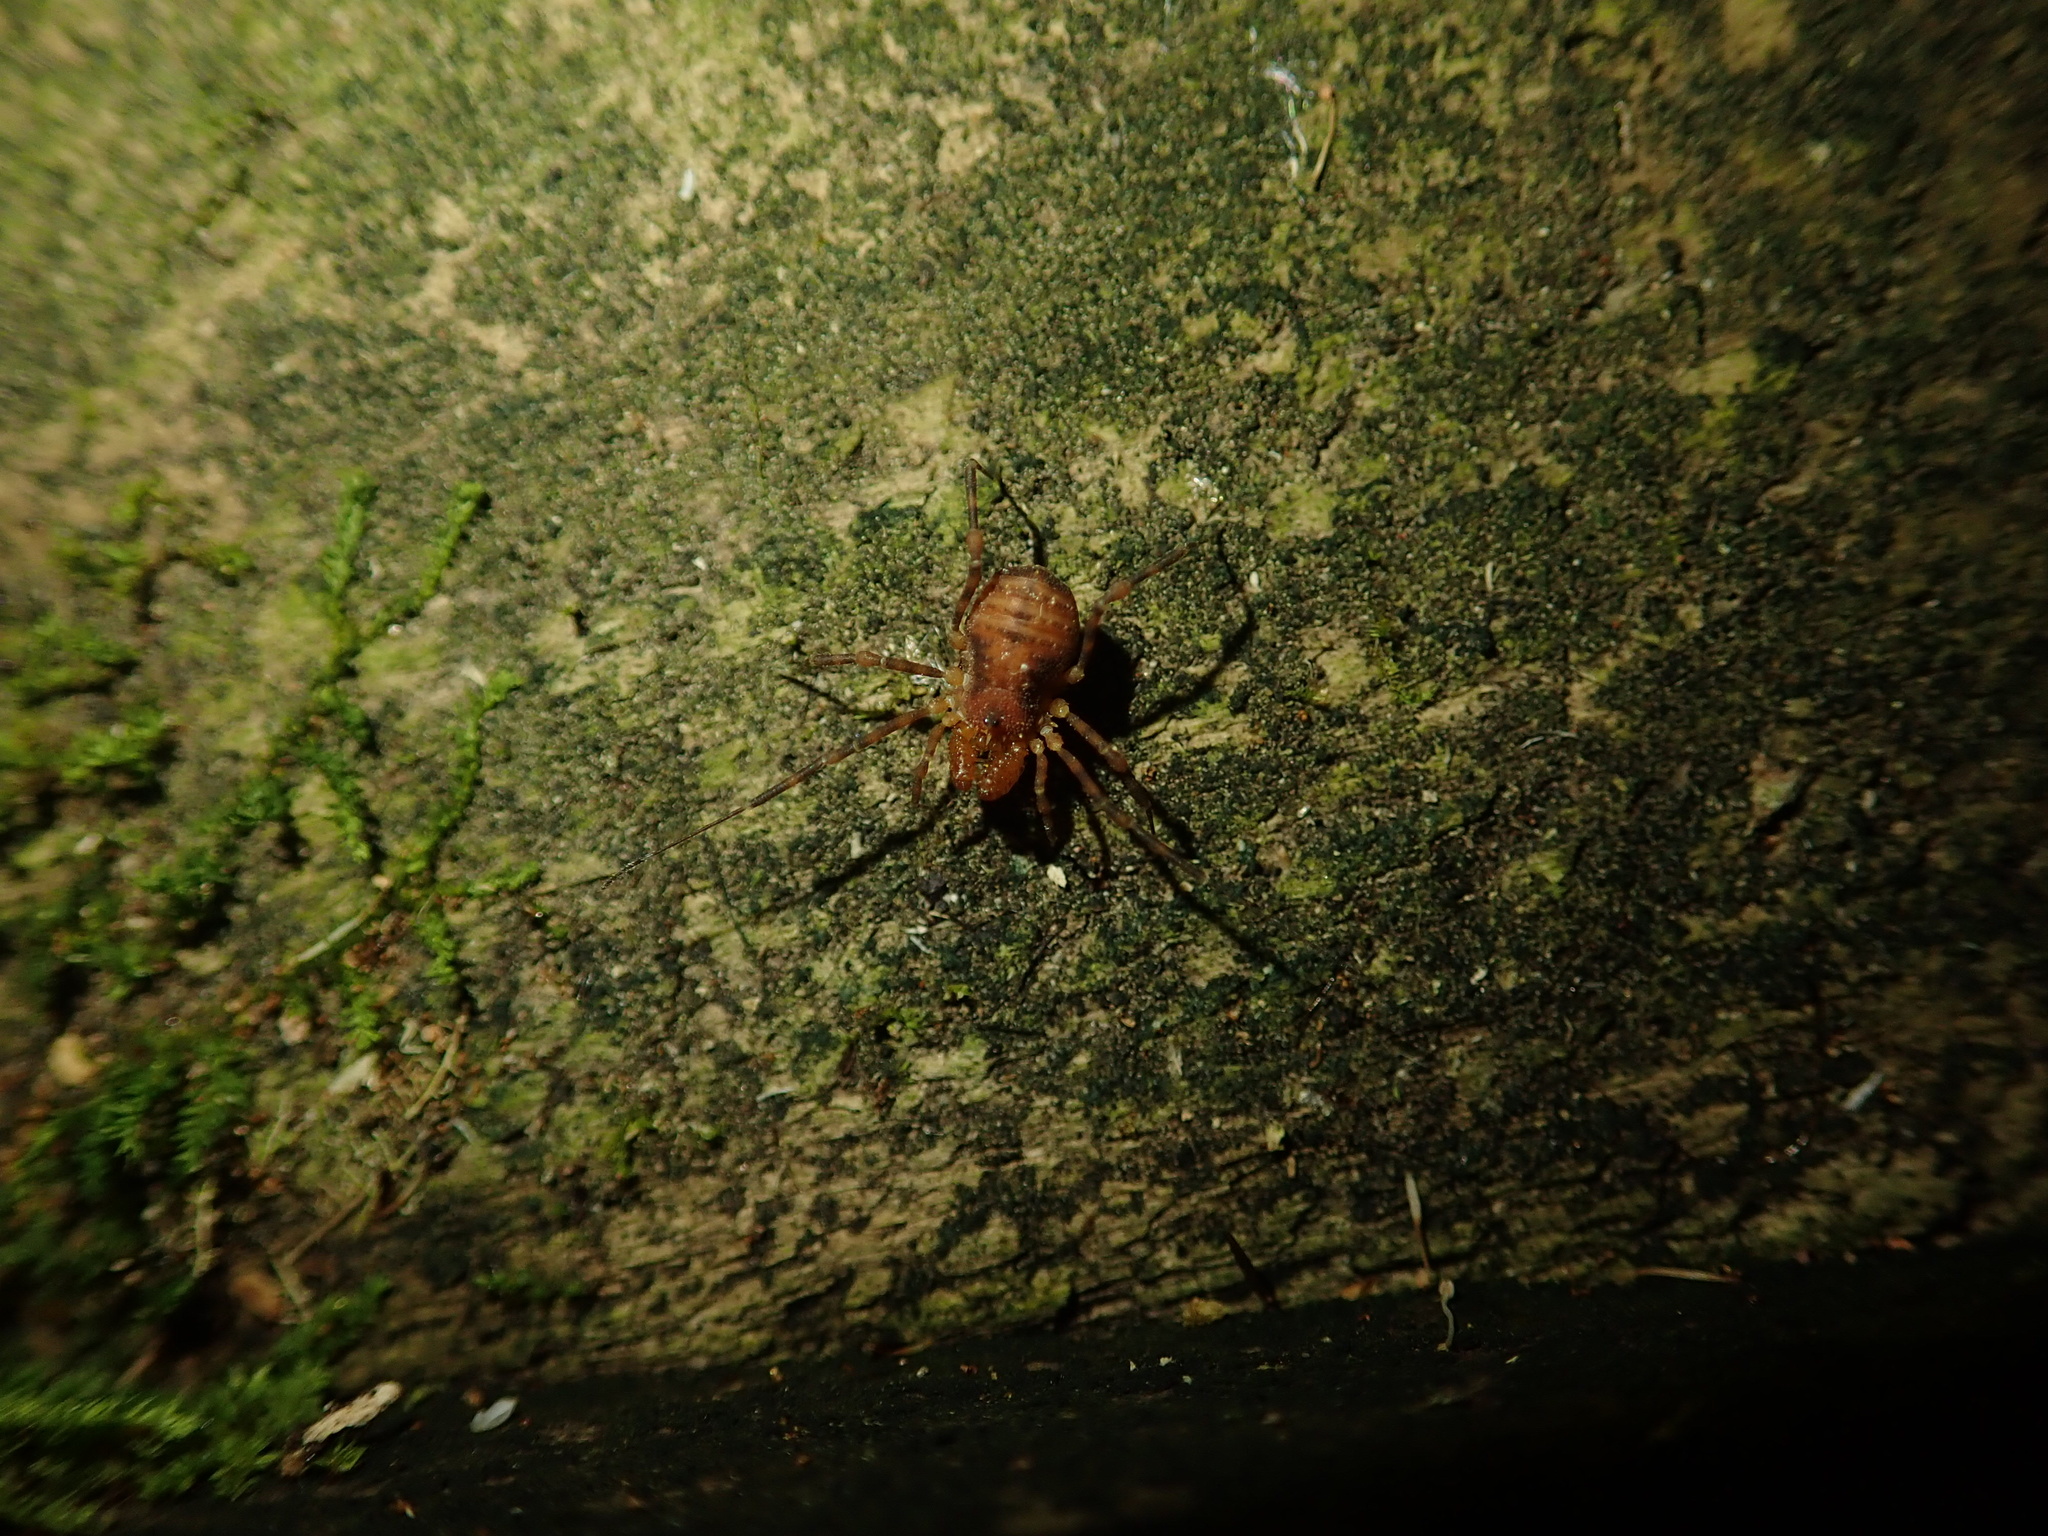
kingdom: Animalia
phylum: Arthropoda
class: Arachnida
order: Opiliones
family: Triaenonychidae
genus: Prasma
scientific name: Prasma tuberculata
